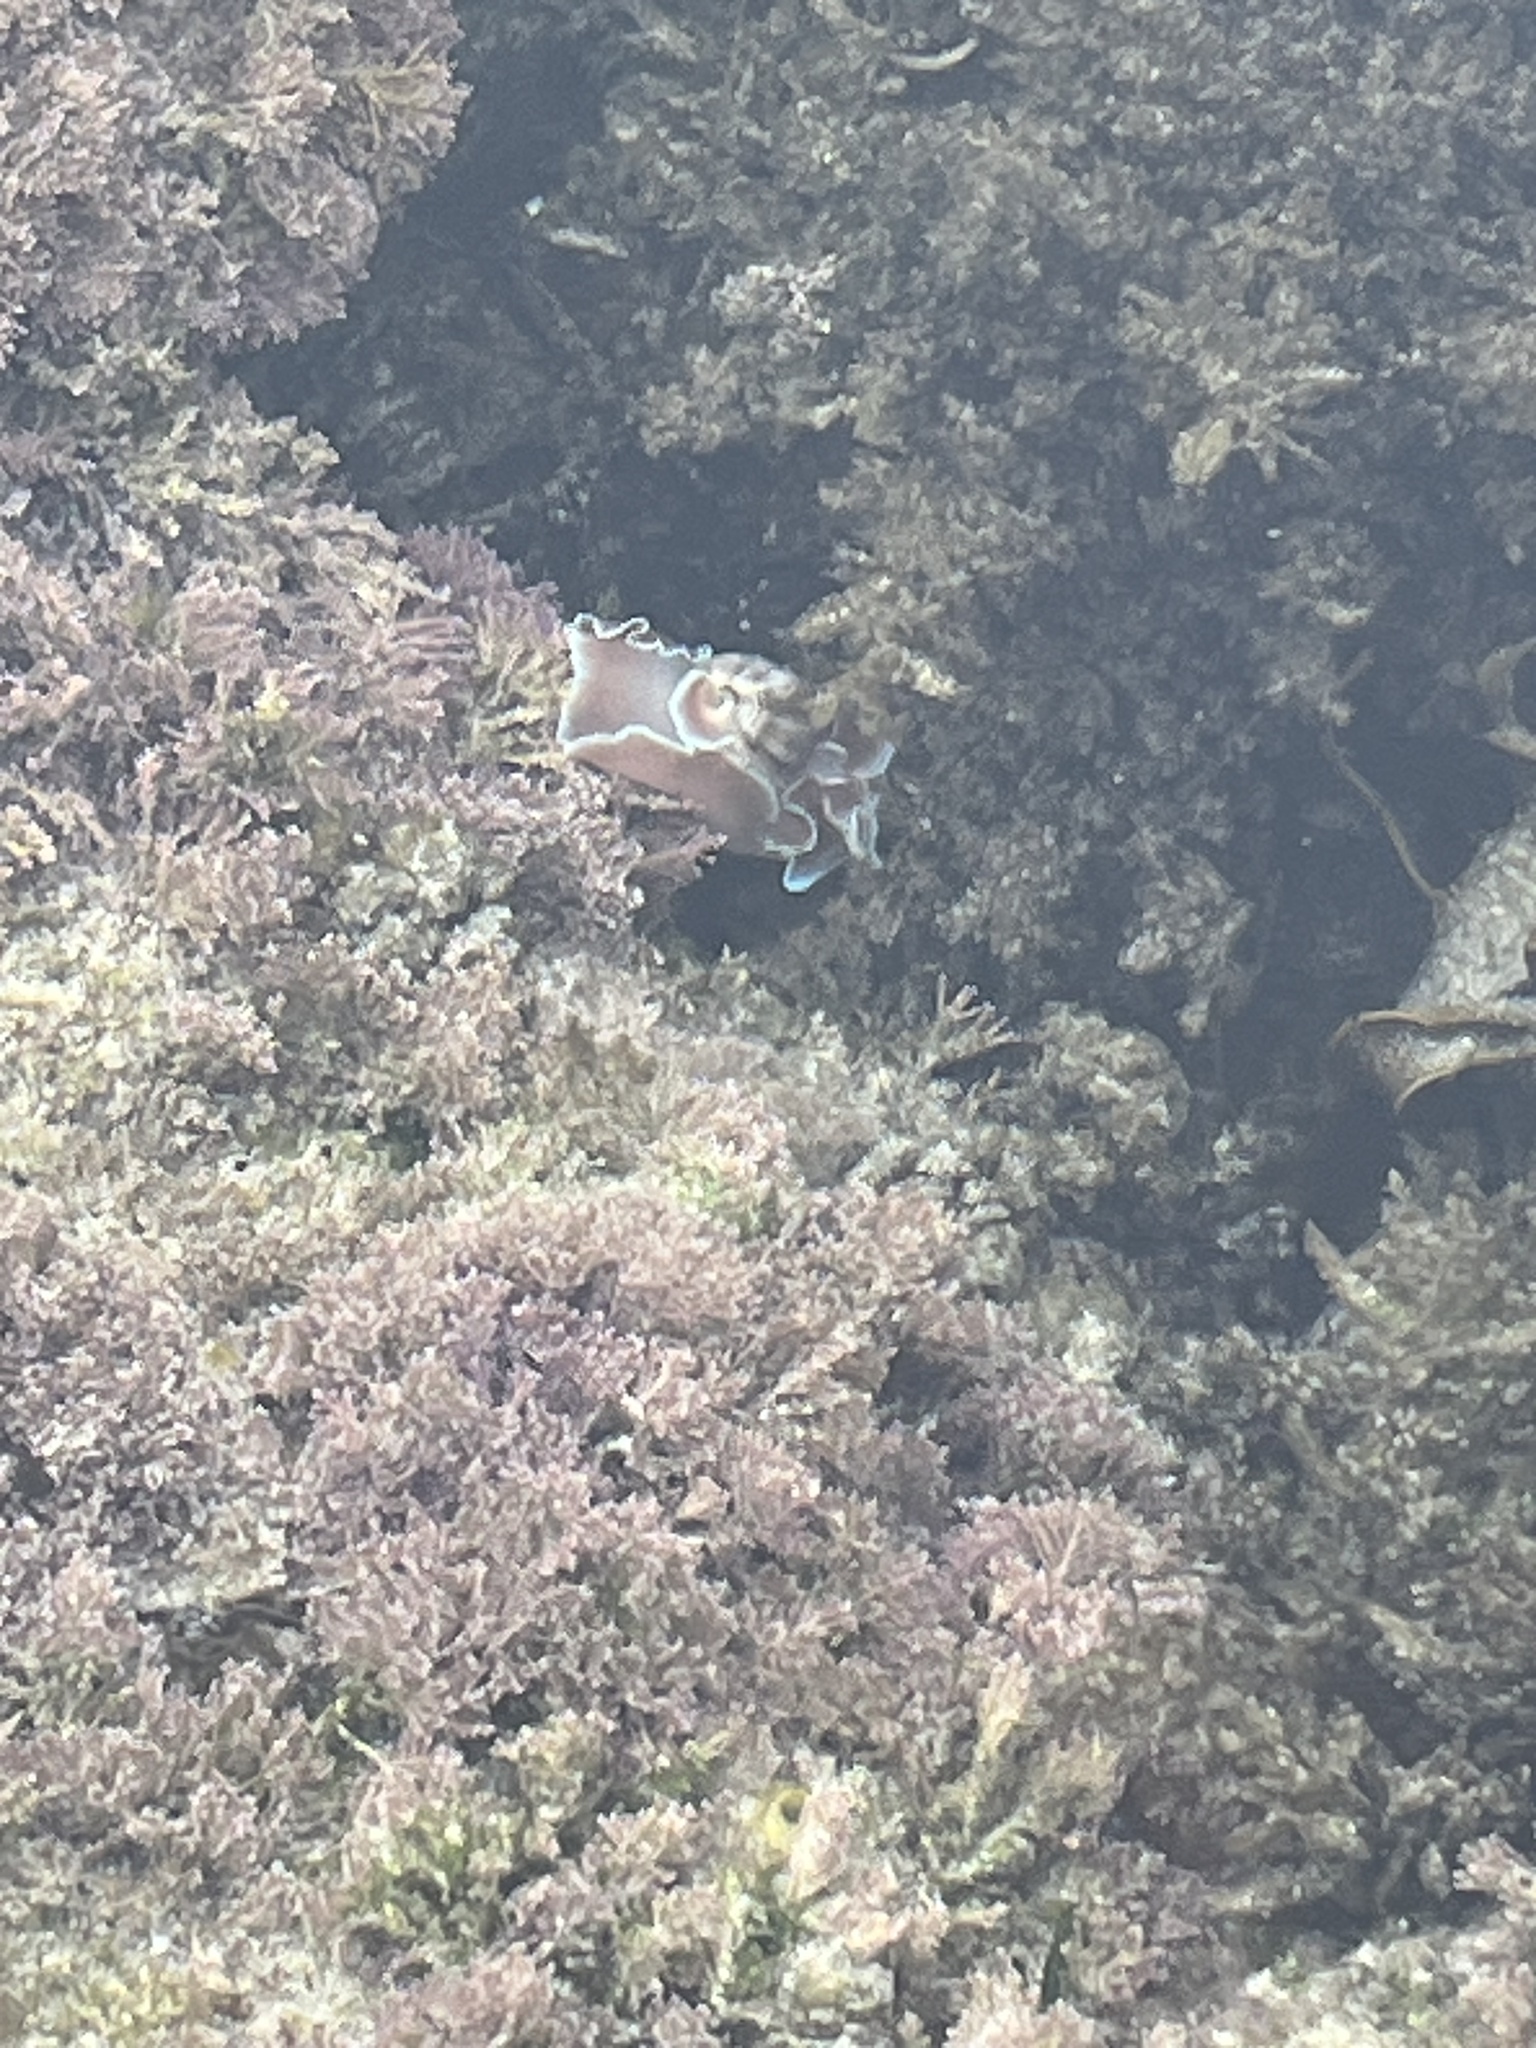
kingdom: Animalia
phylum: Mollusca
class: Gastropoda
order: Cephalaspidea
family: Aplustridae
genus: Hydatina
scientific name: Hydatina physis
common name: Brown-line paperbubble
